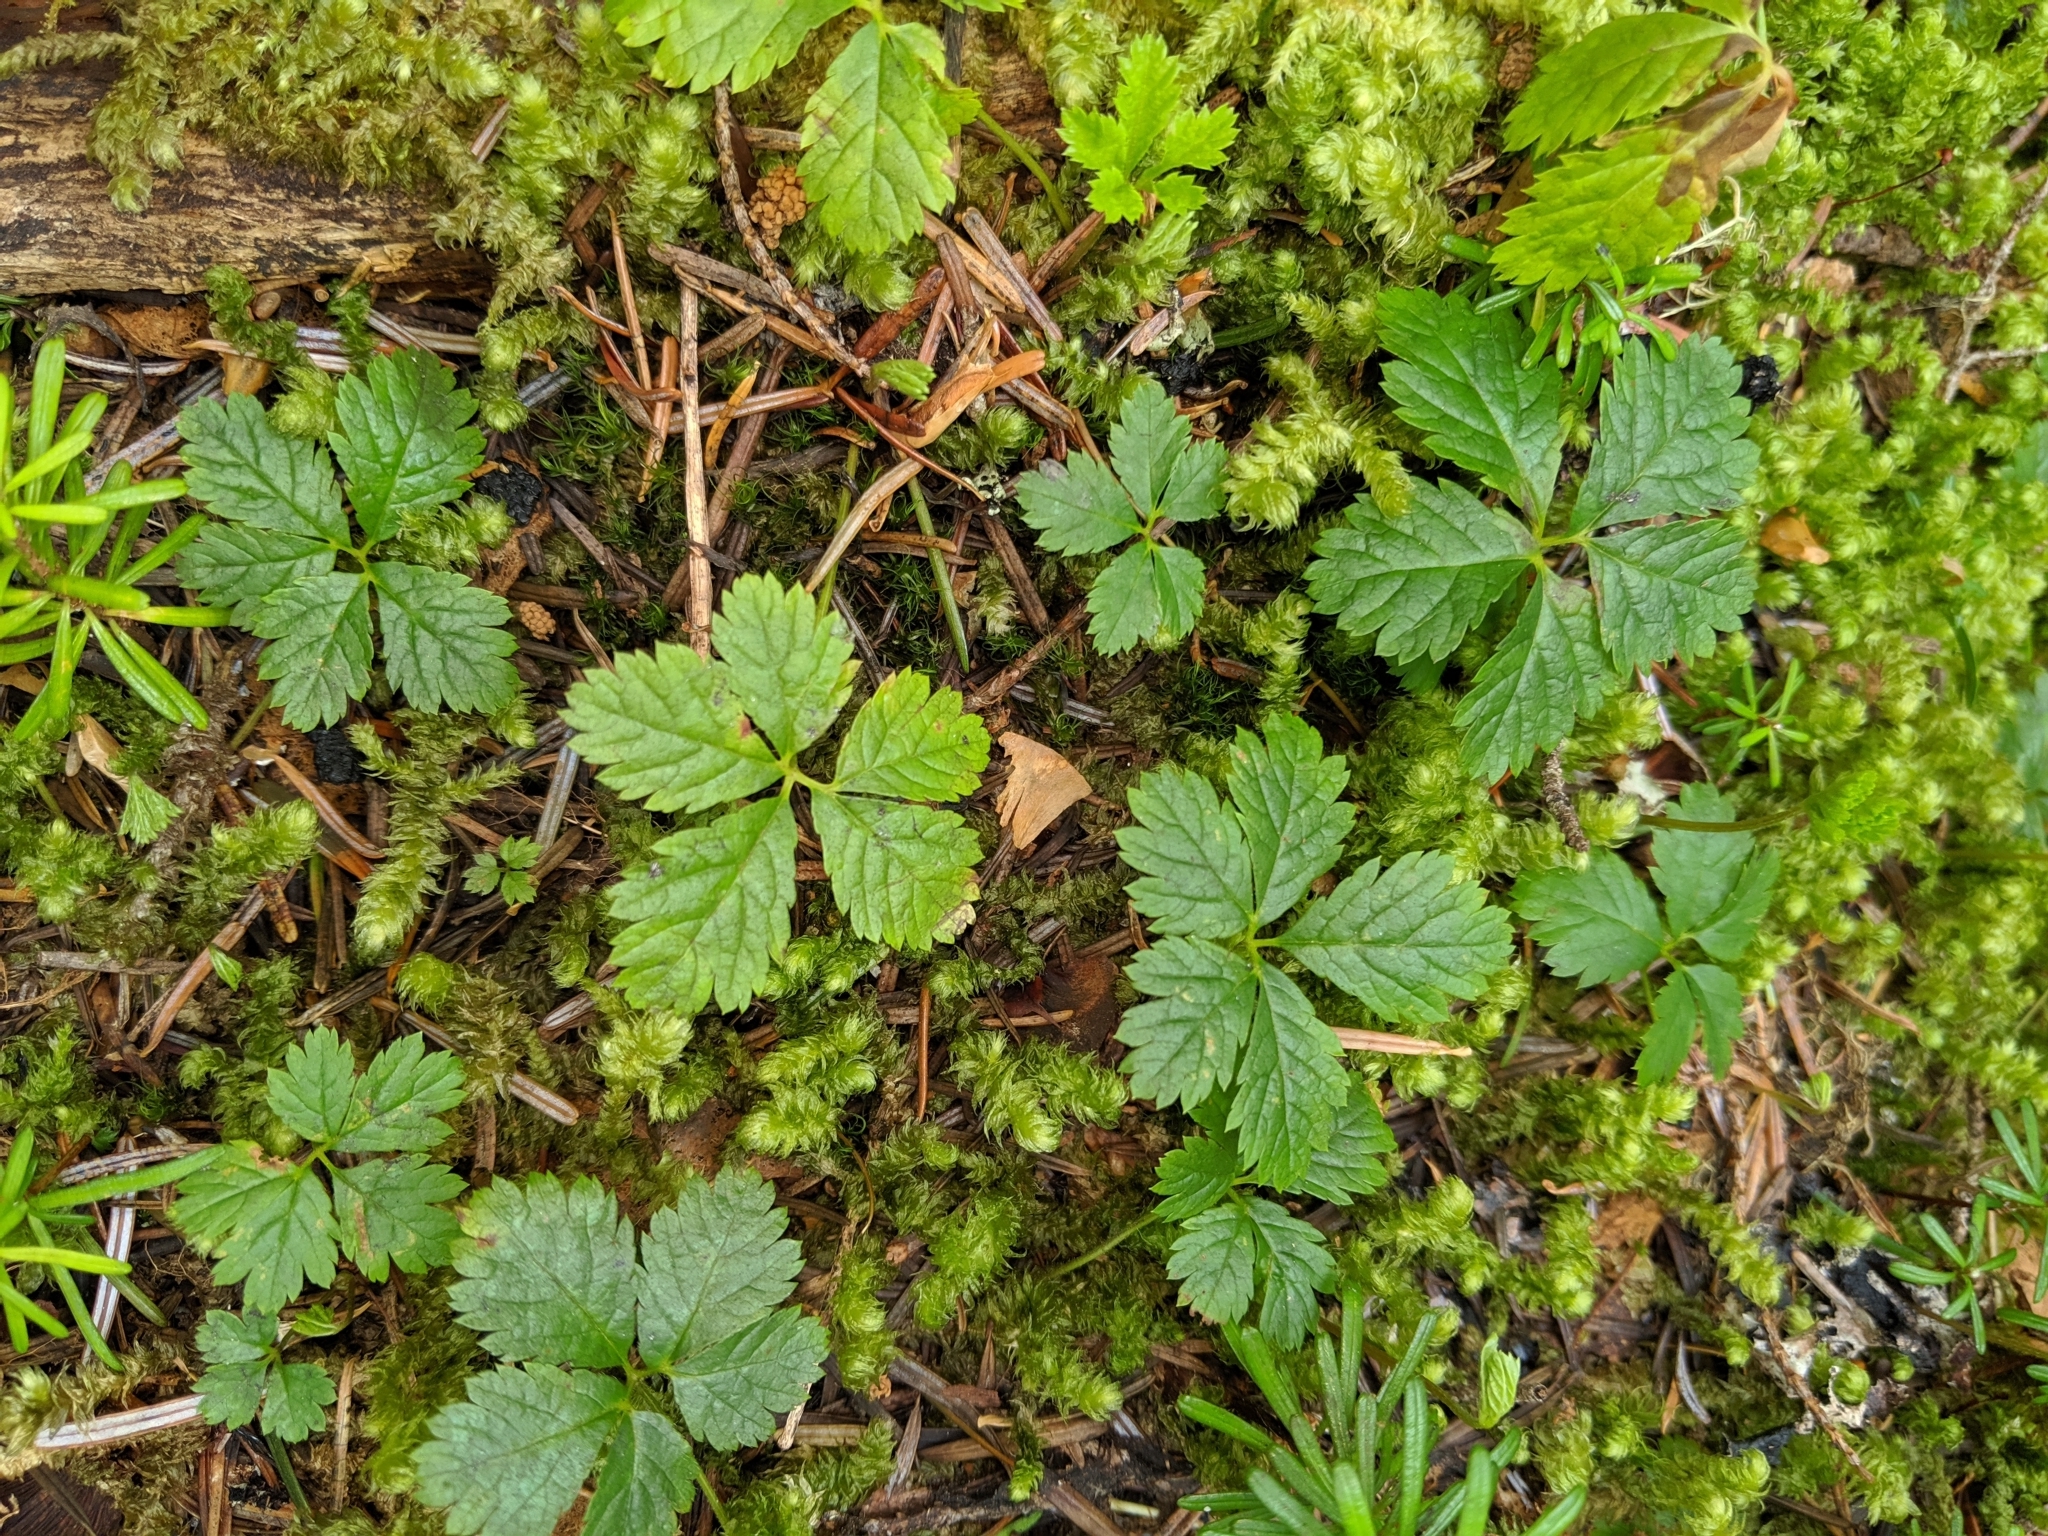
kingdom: Plantae
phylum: Tracheophyta
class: Magnoliopsida
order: Rosales
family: Rosaceae
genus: Rubus
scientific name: Rubus pedatus
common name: Creeping raspberry
